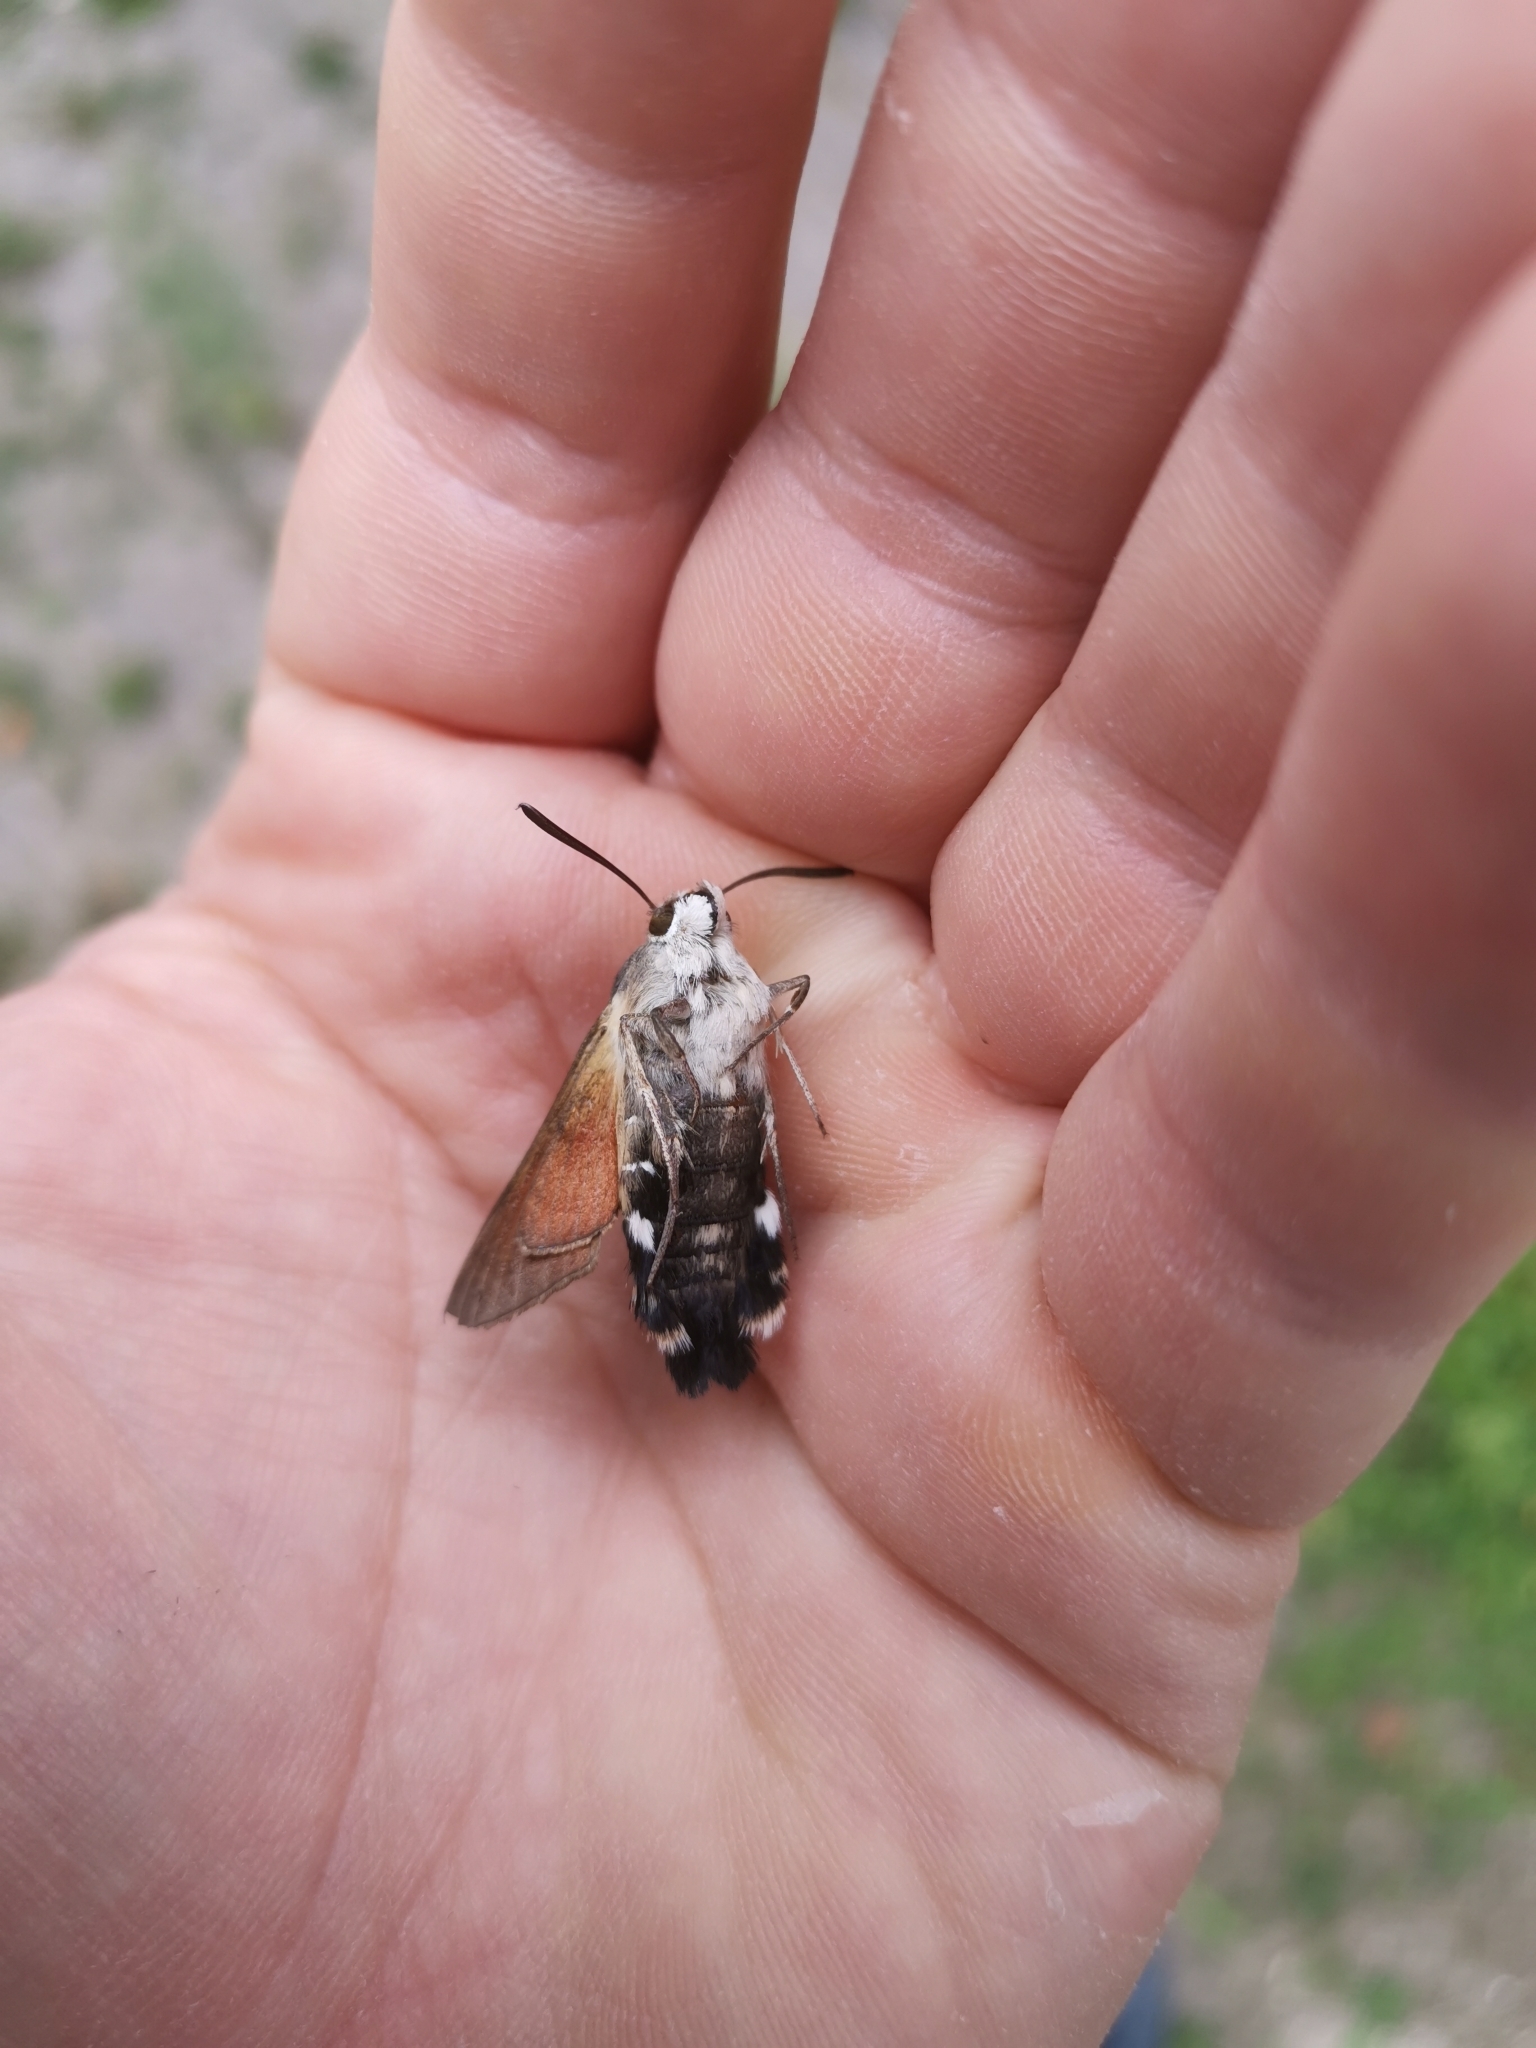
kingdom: Animalia
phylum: Arthropoda
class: Insecta
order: Lepidoptera
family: Sphingidae
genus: Macroglossum
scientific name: Macroglossum stellatarum
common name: Humming-bird hawk-moth
